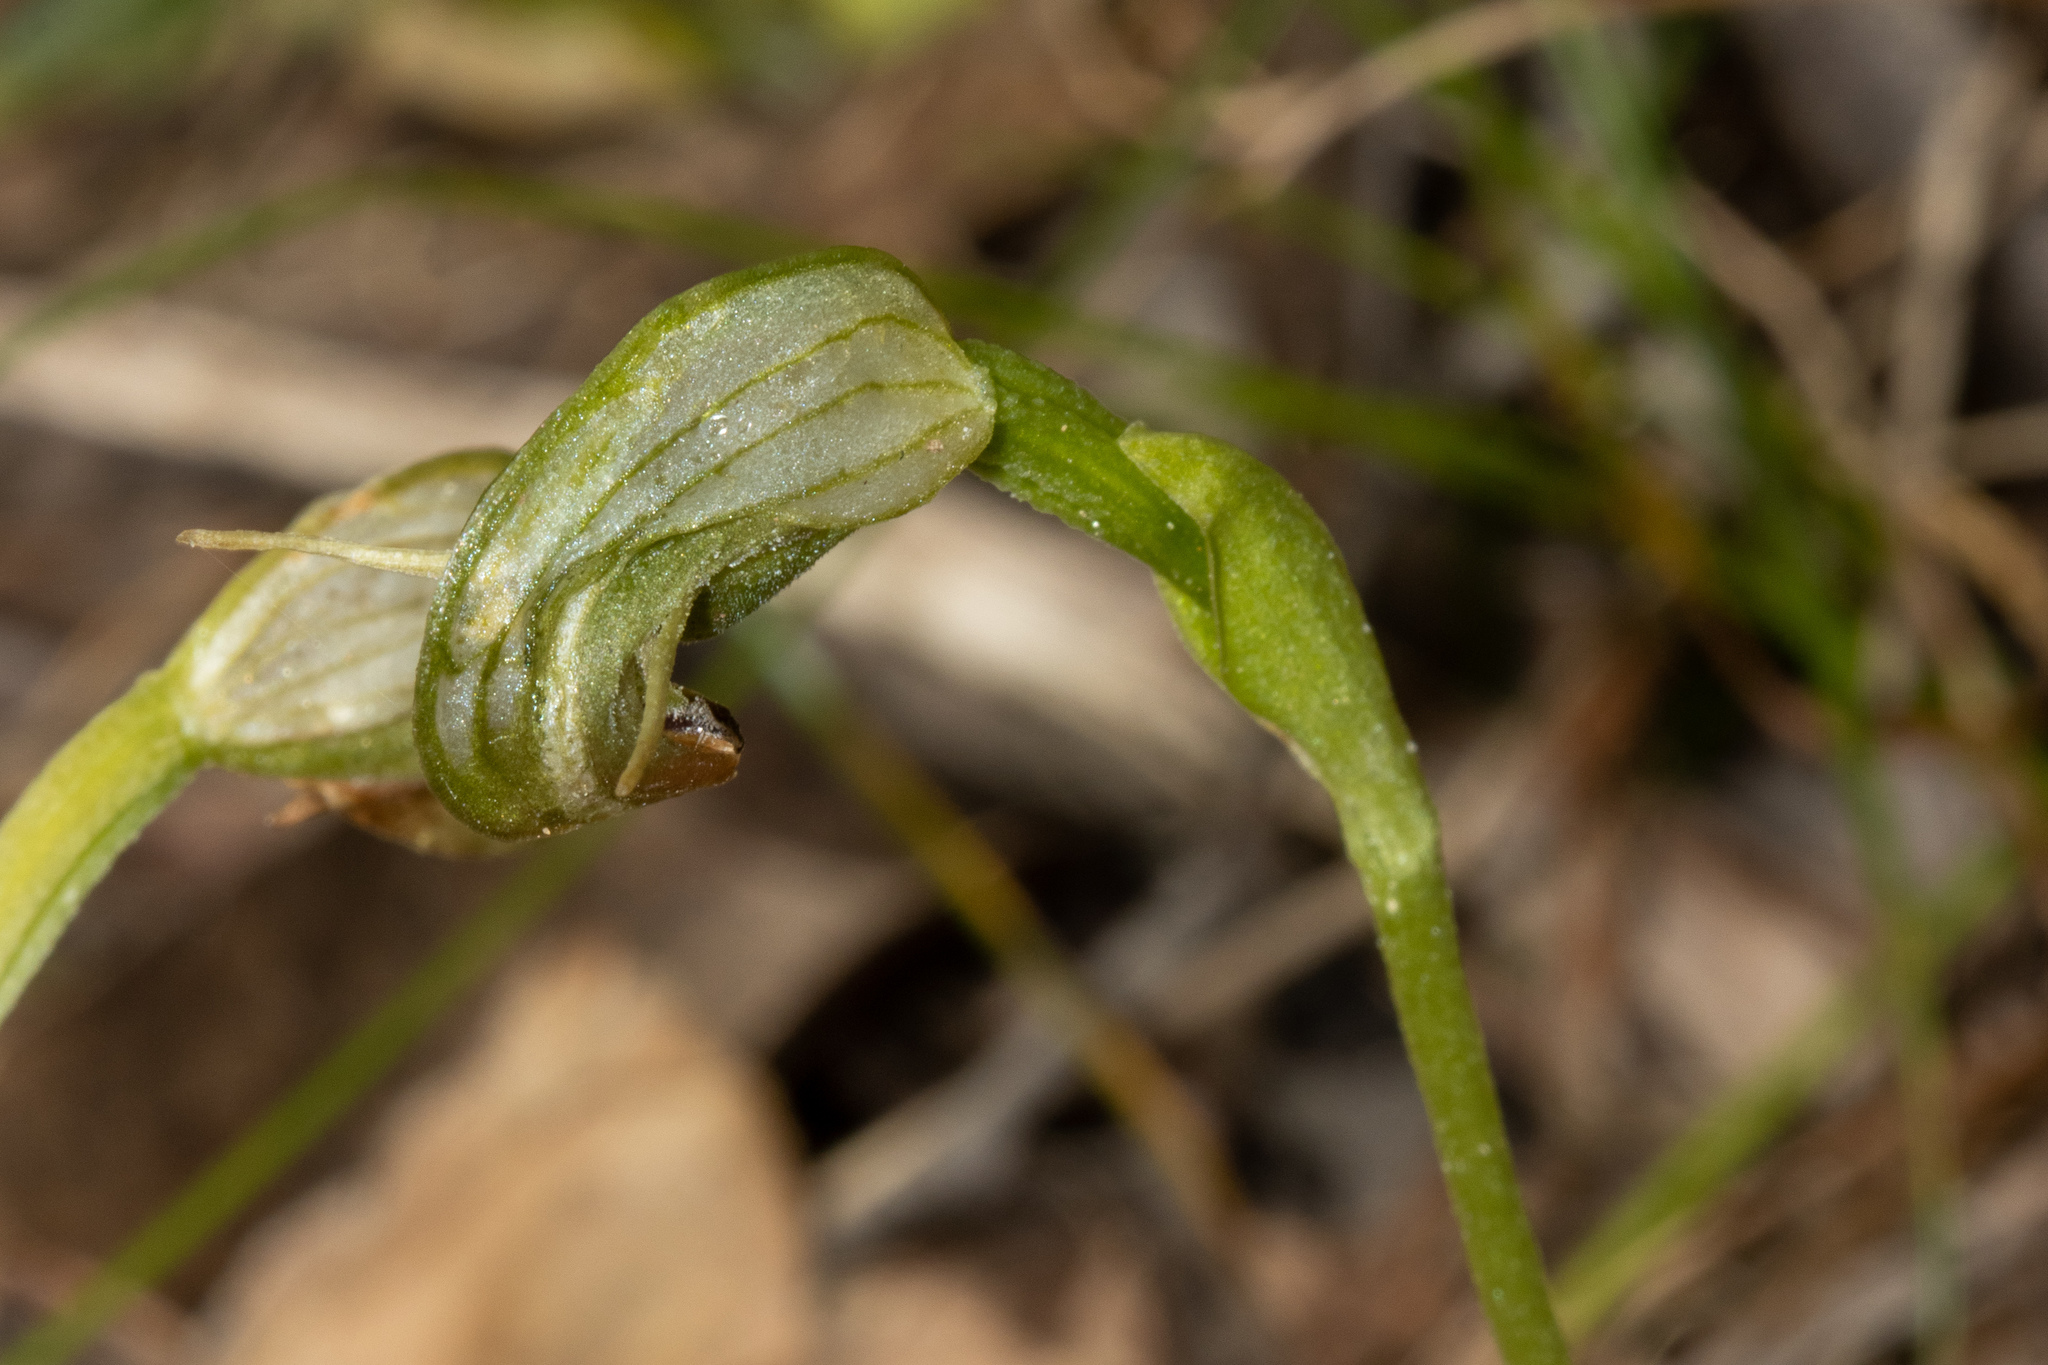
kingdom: Plantae
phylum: Tracheophyta
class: Liliopsida
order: Asparagales
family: Orchidaceae
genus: Pterostylis
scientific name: Pterostylis nutans
